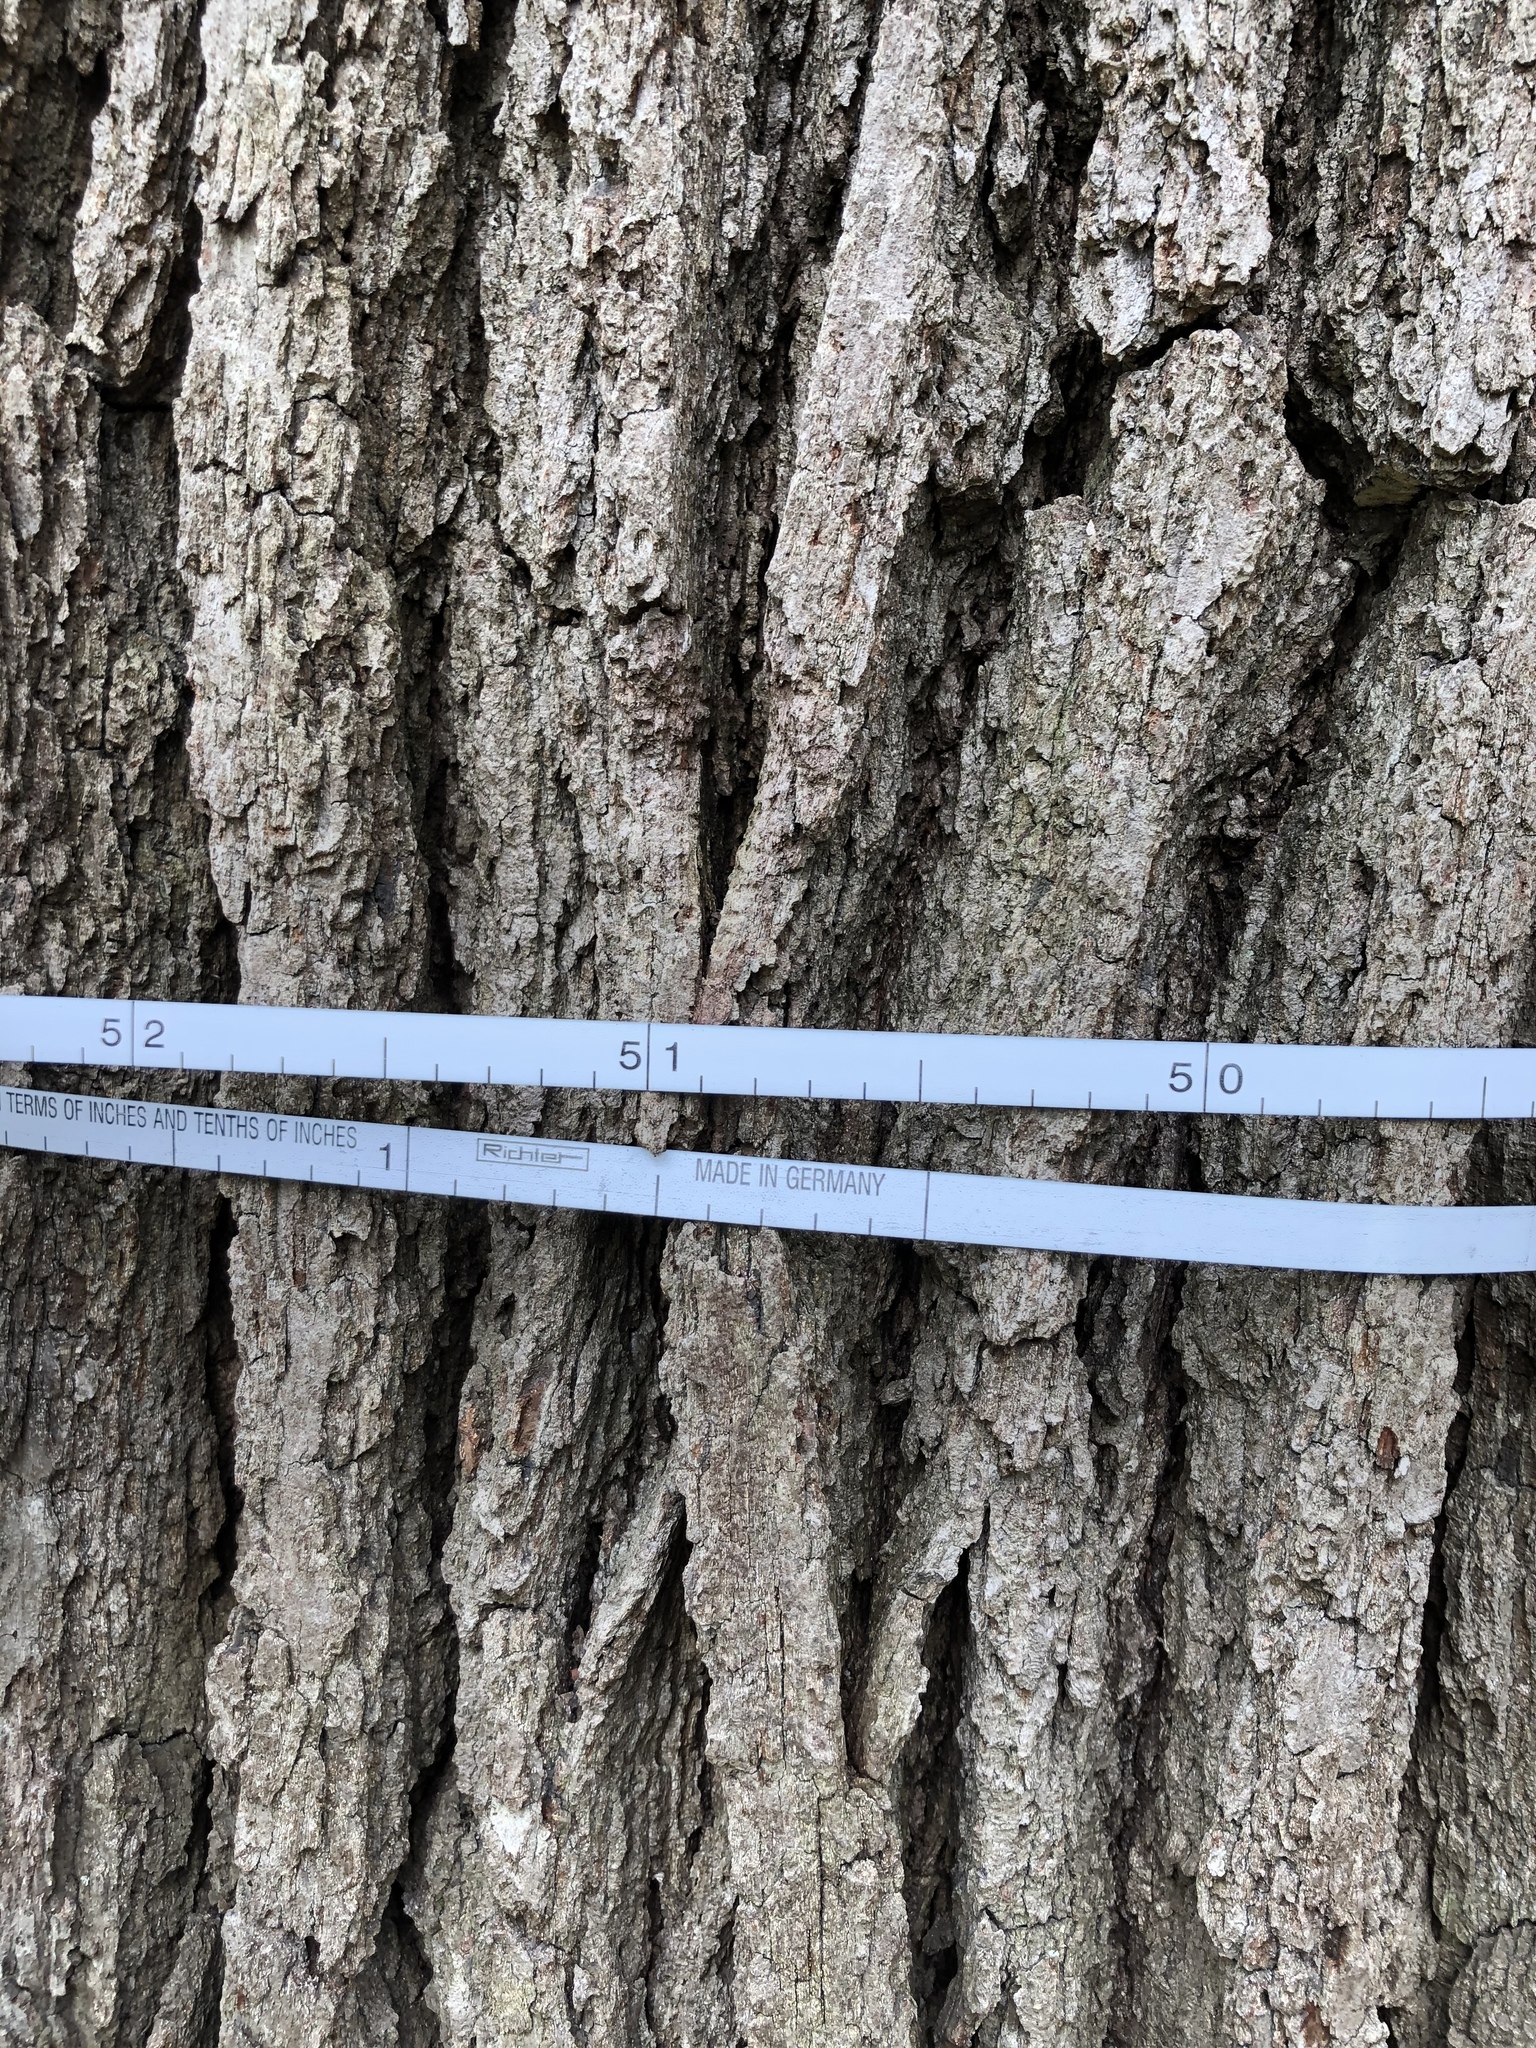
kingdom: Plantae
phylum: Tracheophyta
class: Magnoliopsida
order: Fagales
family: Fagaceae
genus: Quercus
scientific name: Quercus alba
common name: White oak
